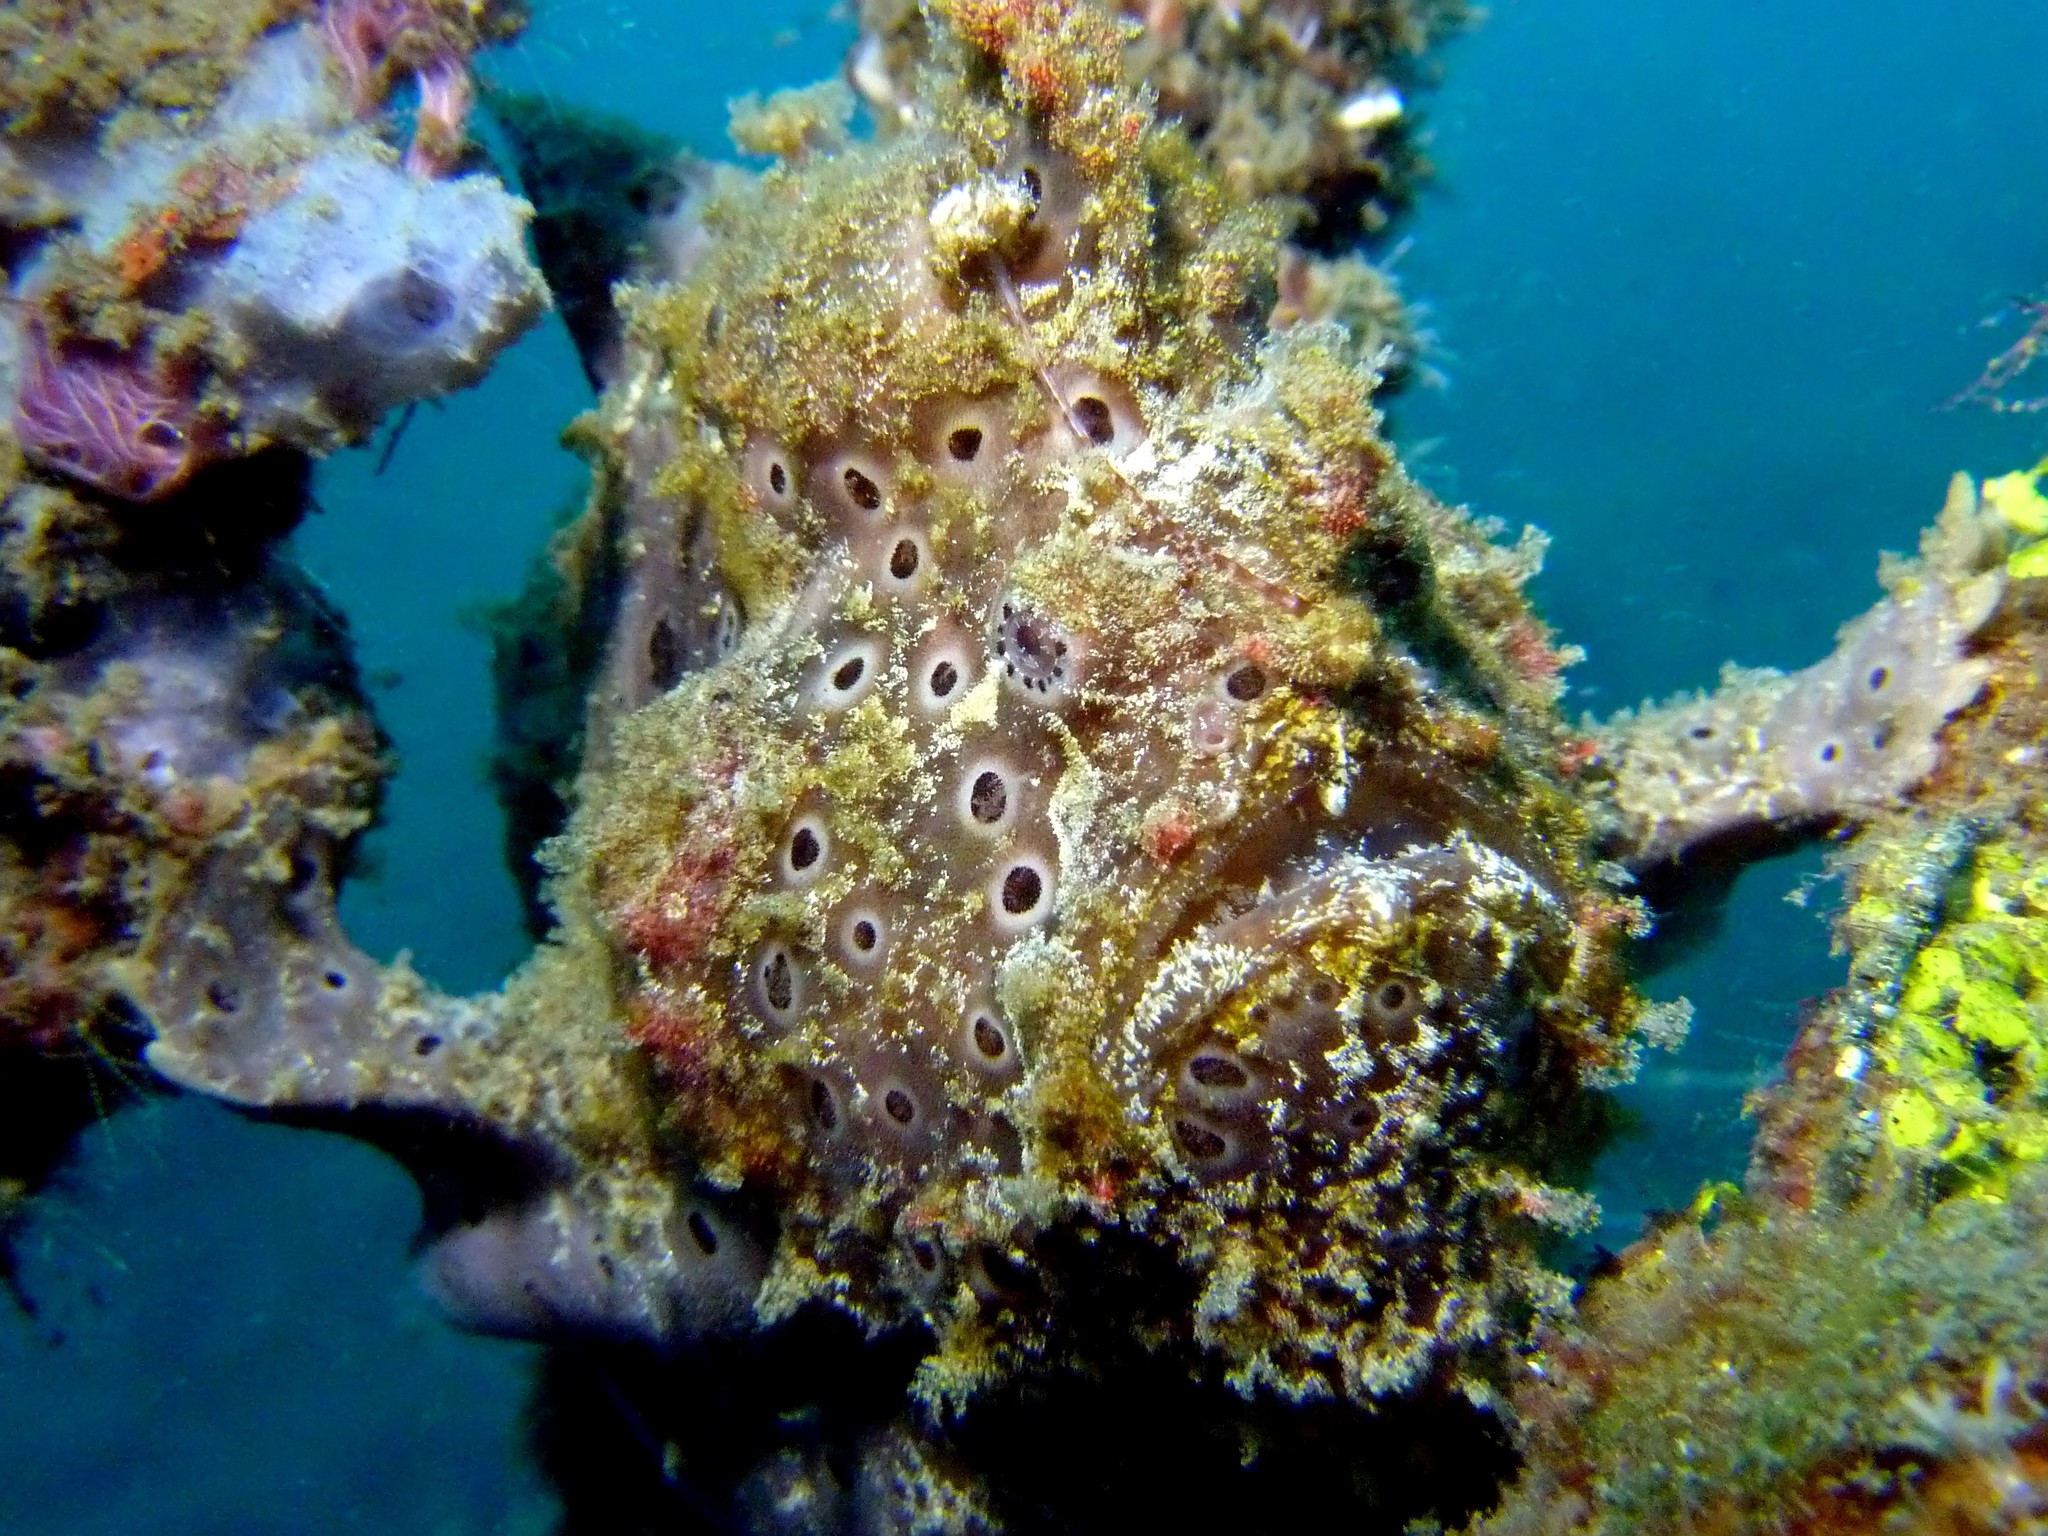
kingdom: Animalia
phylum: Chordata
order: Lophiiformes
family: Antennariidae
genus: Antennarius
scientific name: Antennarius pictus
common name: Painted frogfish
